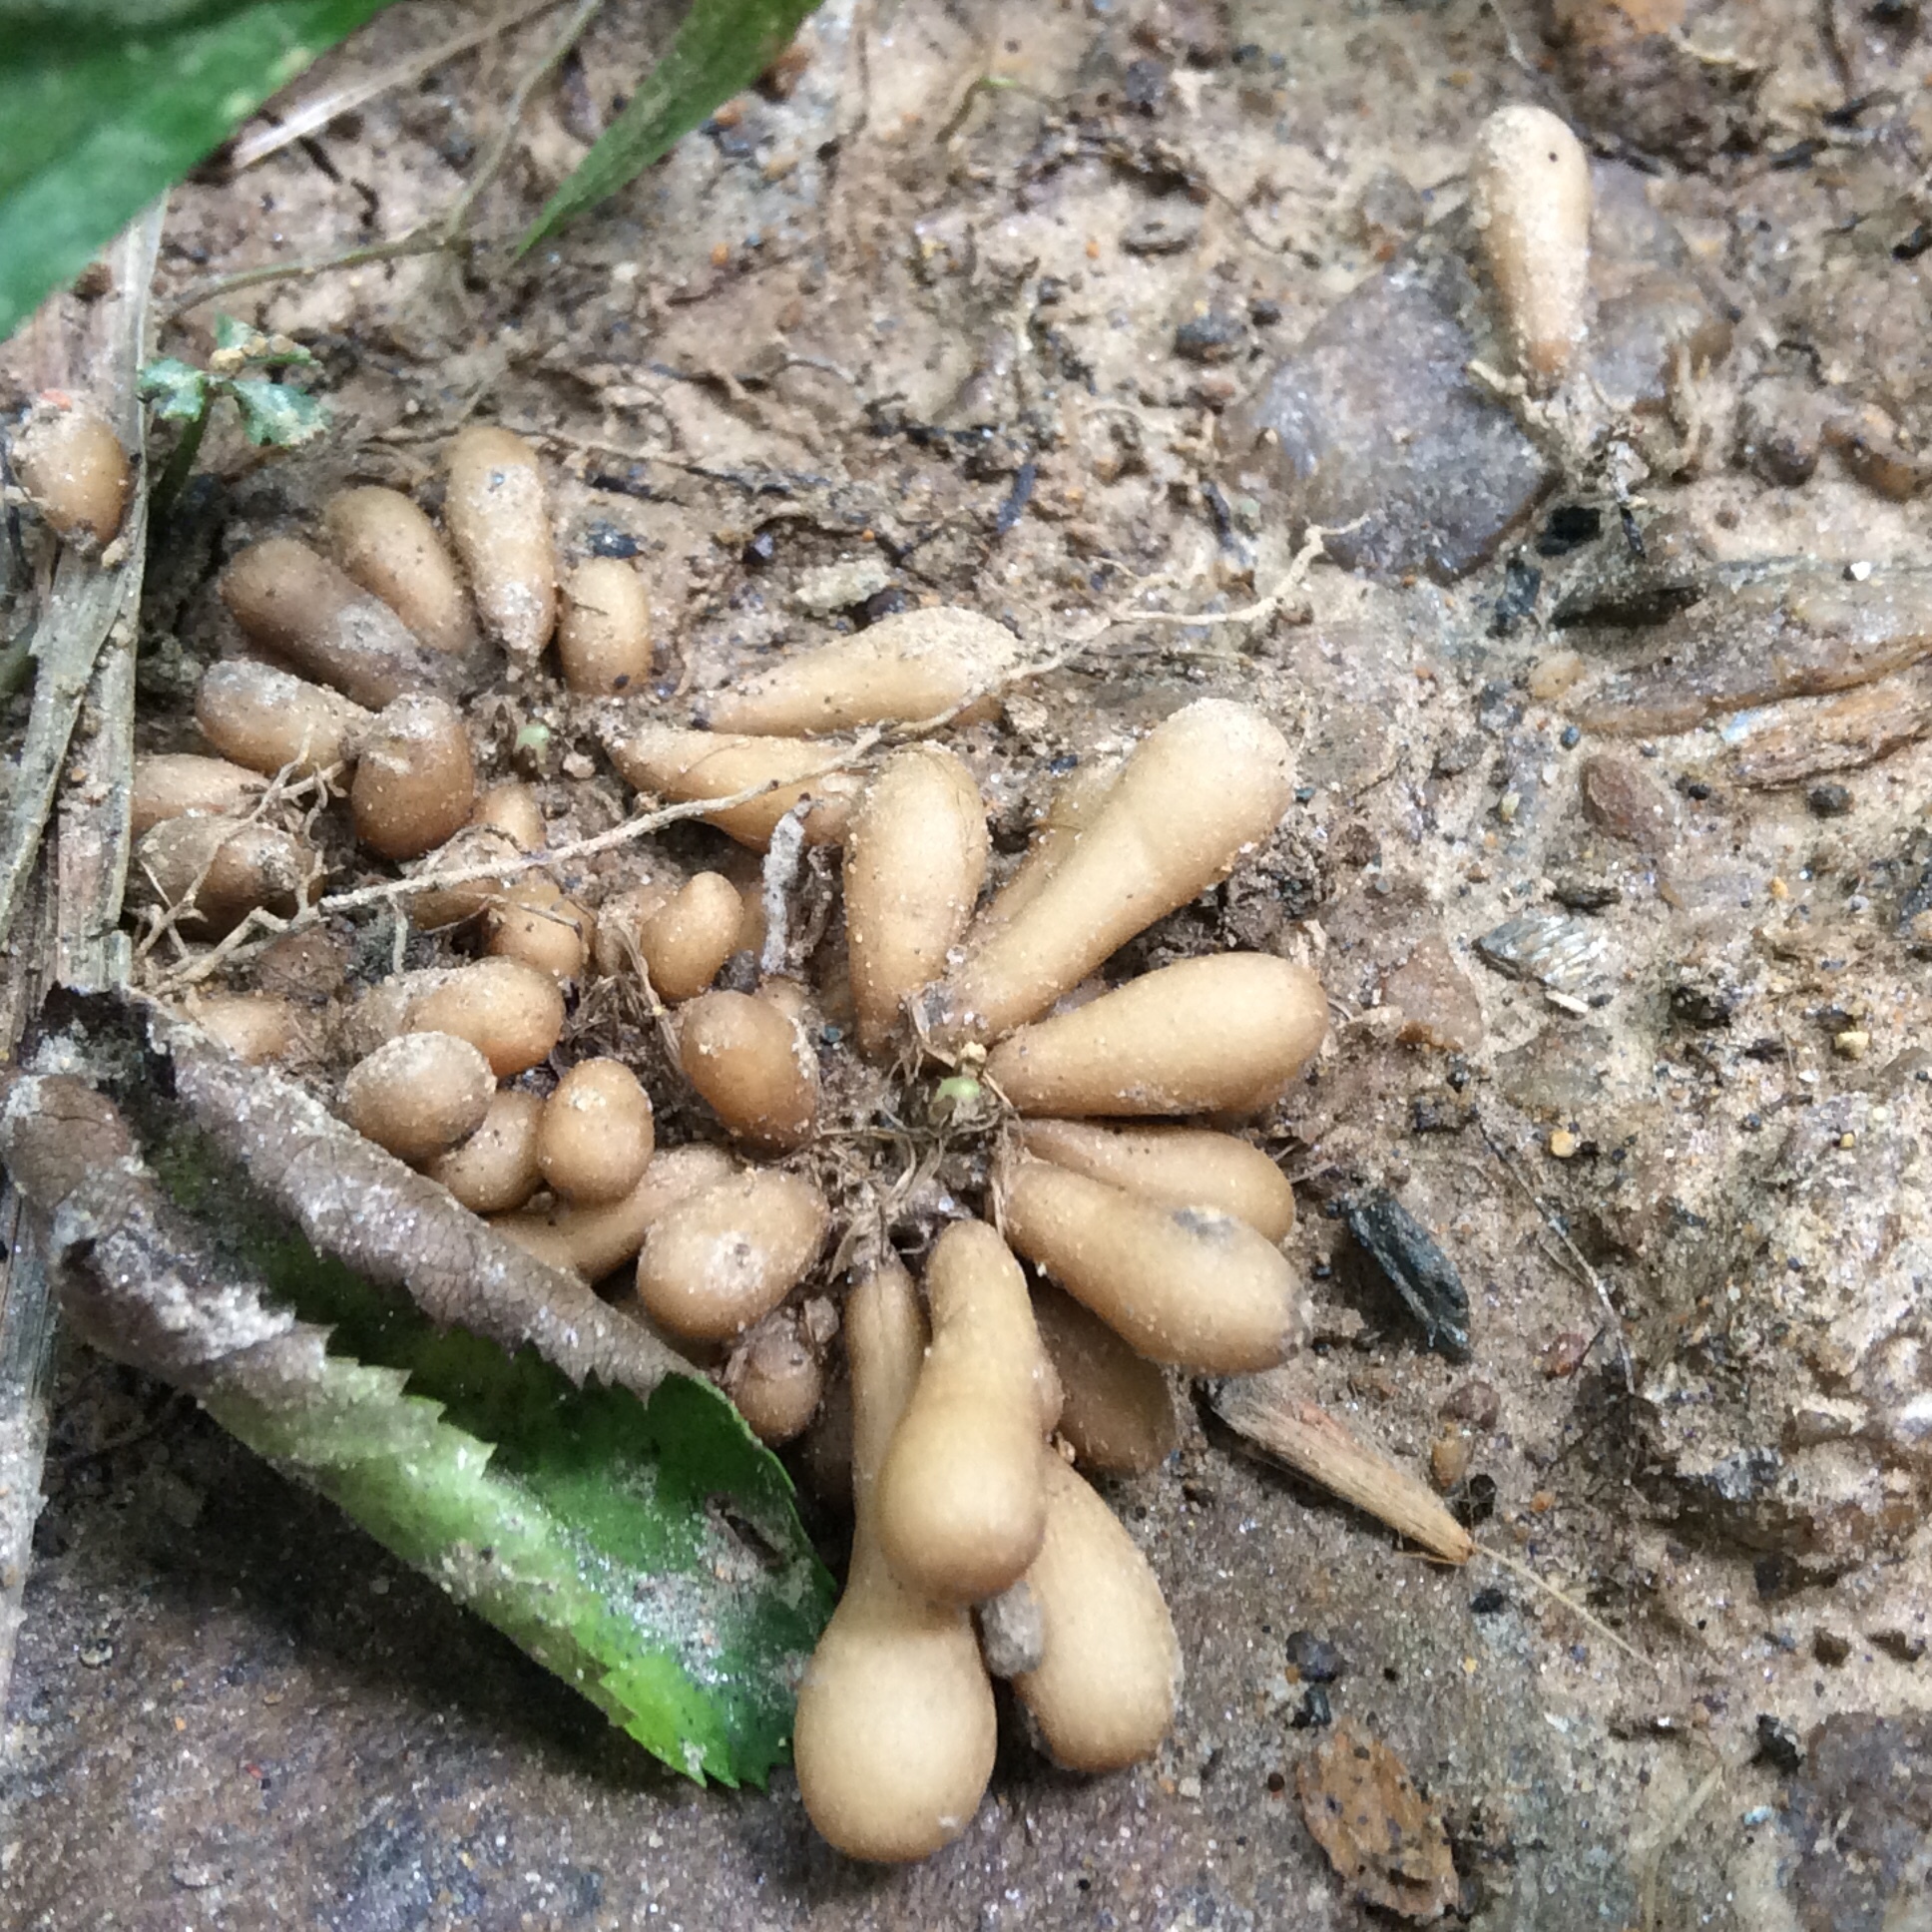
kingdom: Plantae
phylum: Tracheophyta
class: Magnoliopsida
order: Ranunculales
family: Ranunculaceae
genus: Ficaria
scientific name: Ficaria verna
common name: Lesser celandine
